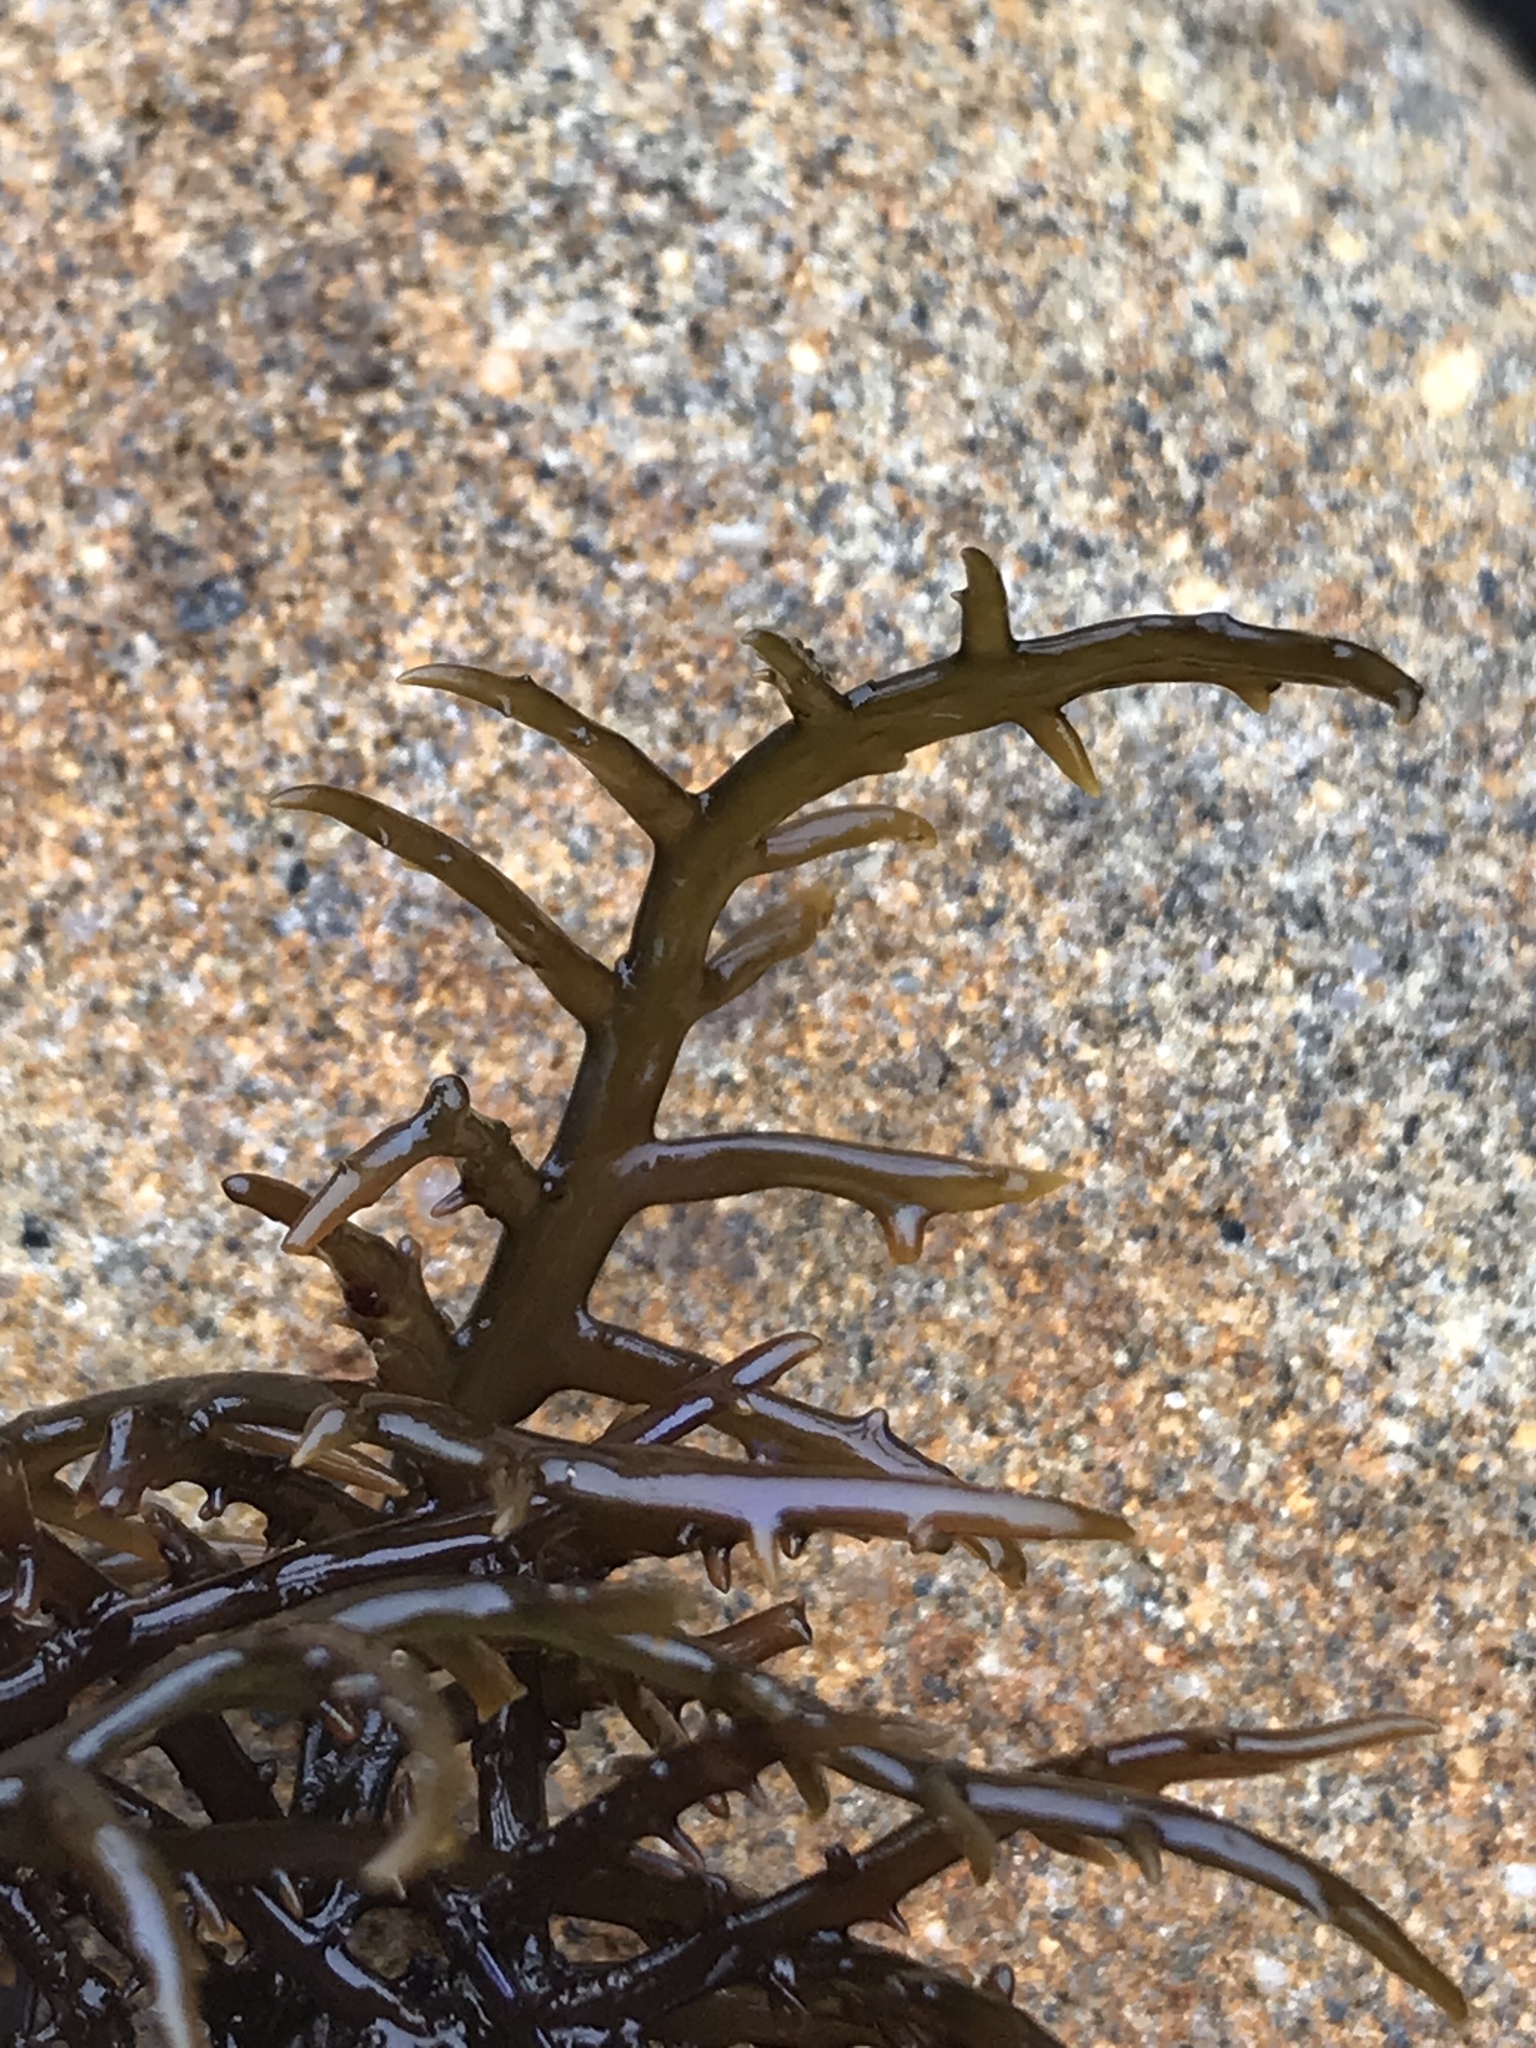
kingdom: Plantae
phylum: Rhodophyta
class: Florideophyceae
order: Gigartinales
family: Gigartinaceae
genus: Chondracanthus
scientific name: Chondracanthus canaliculatus
